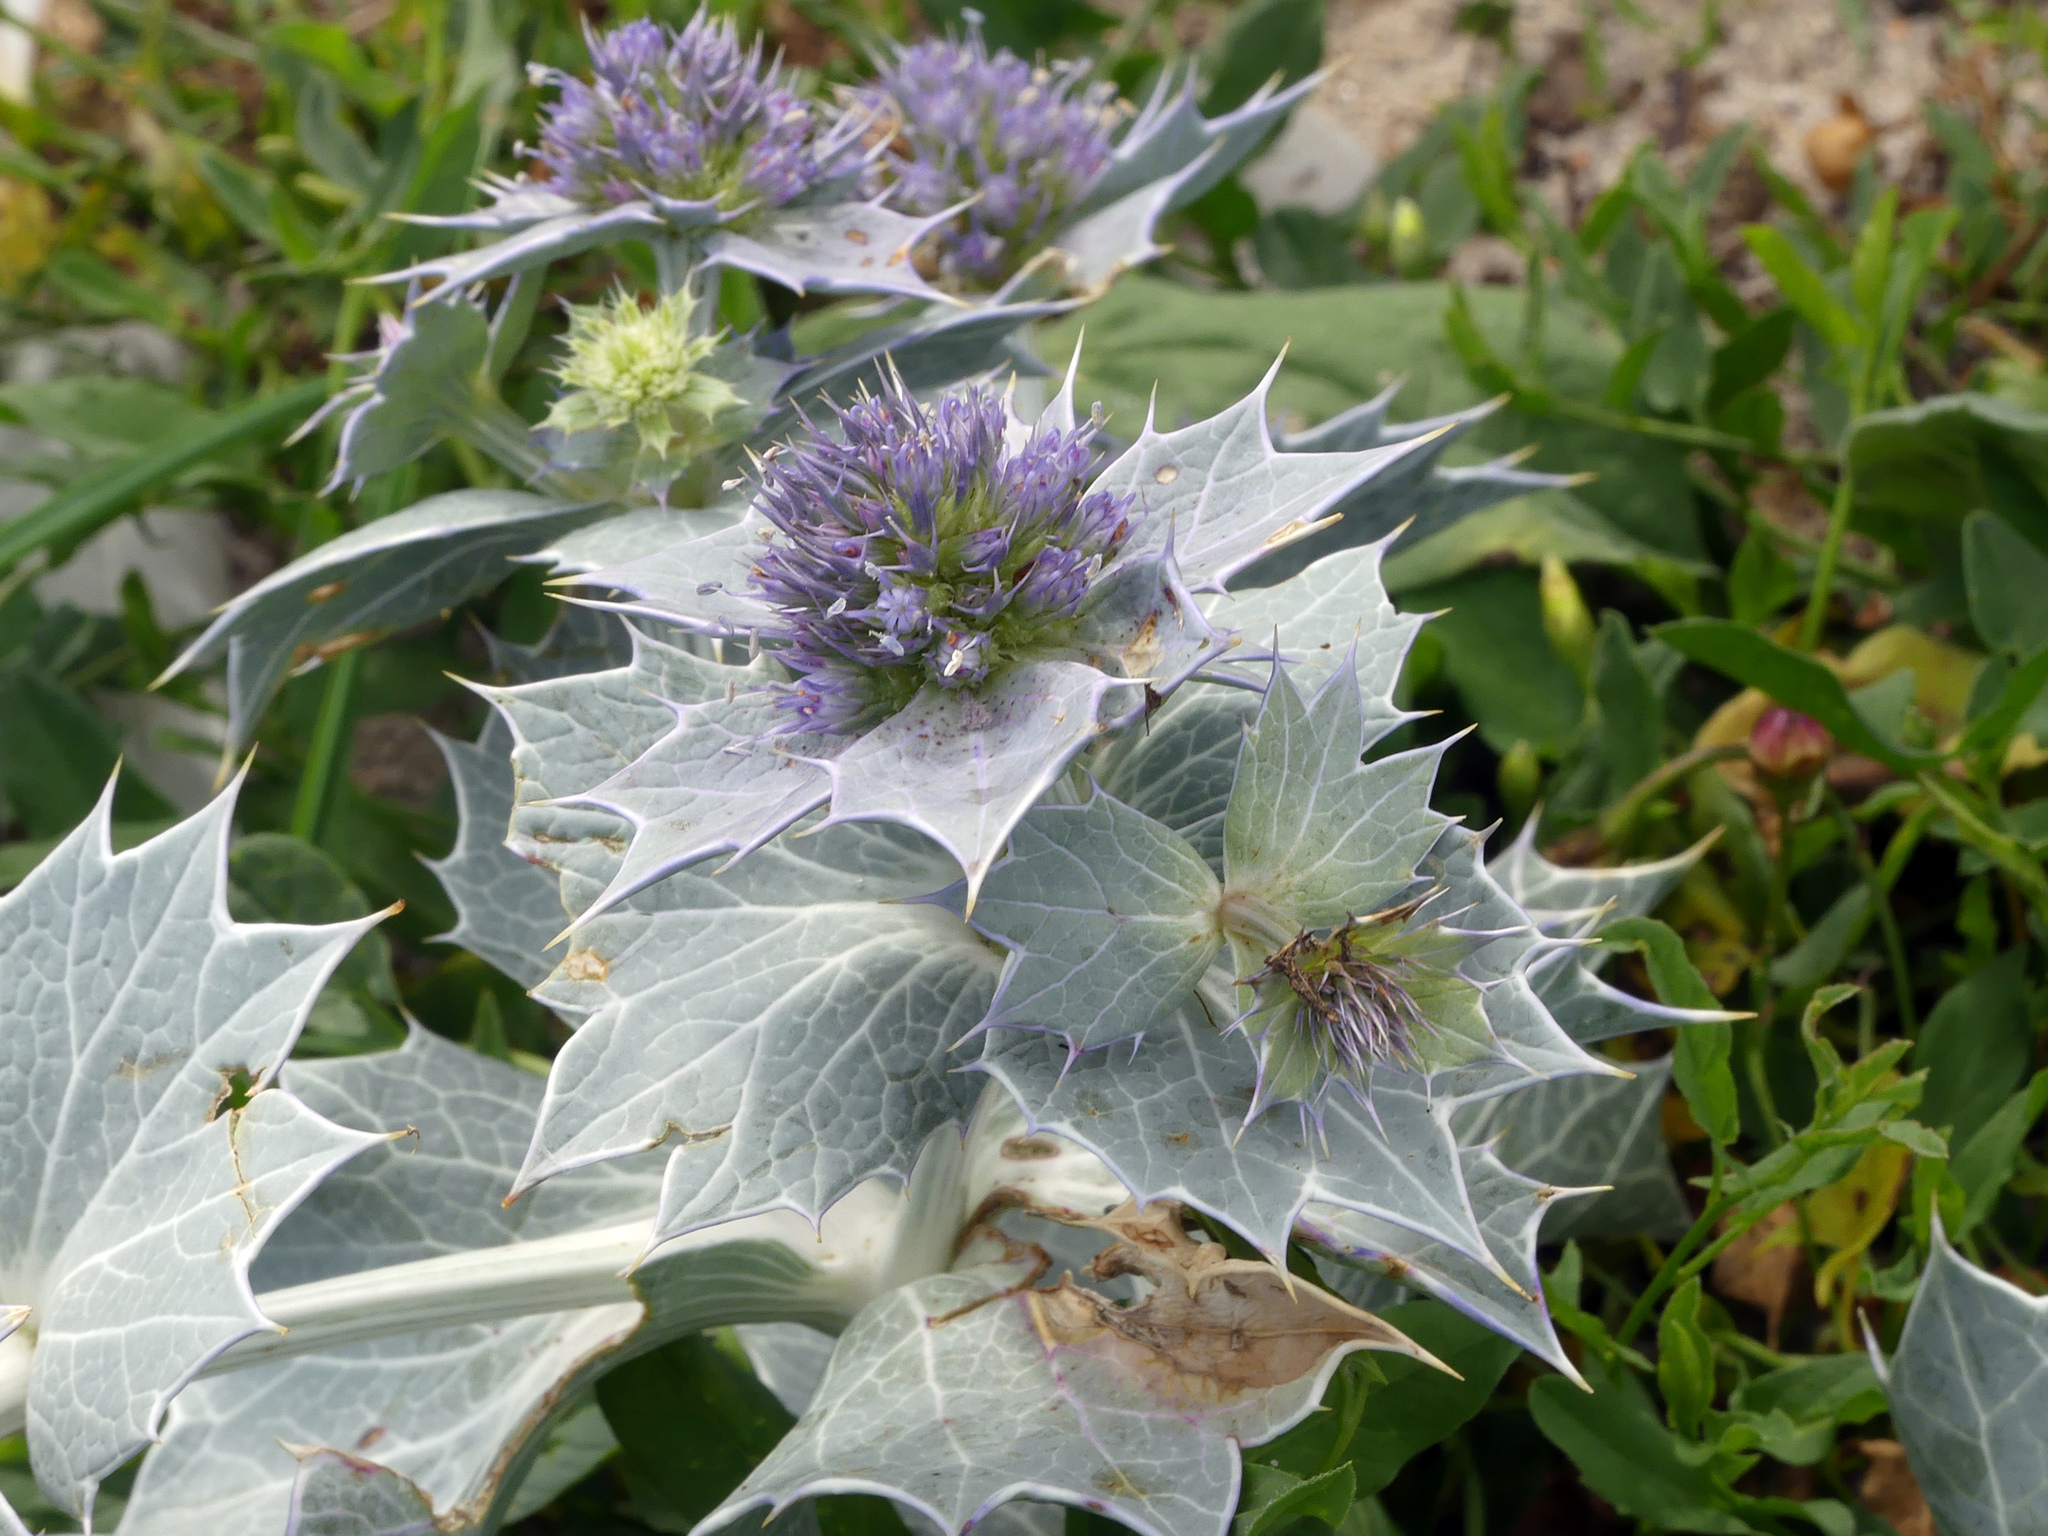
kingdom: Plantae
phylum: Tracheophyta
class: Magnoliopsida
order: Apiales
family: Apiaceae
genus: Eryngium
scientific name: Eryngium maritimum
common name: Sea-holly
